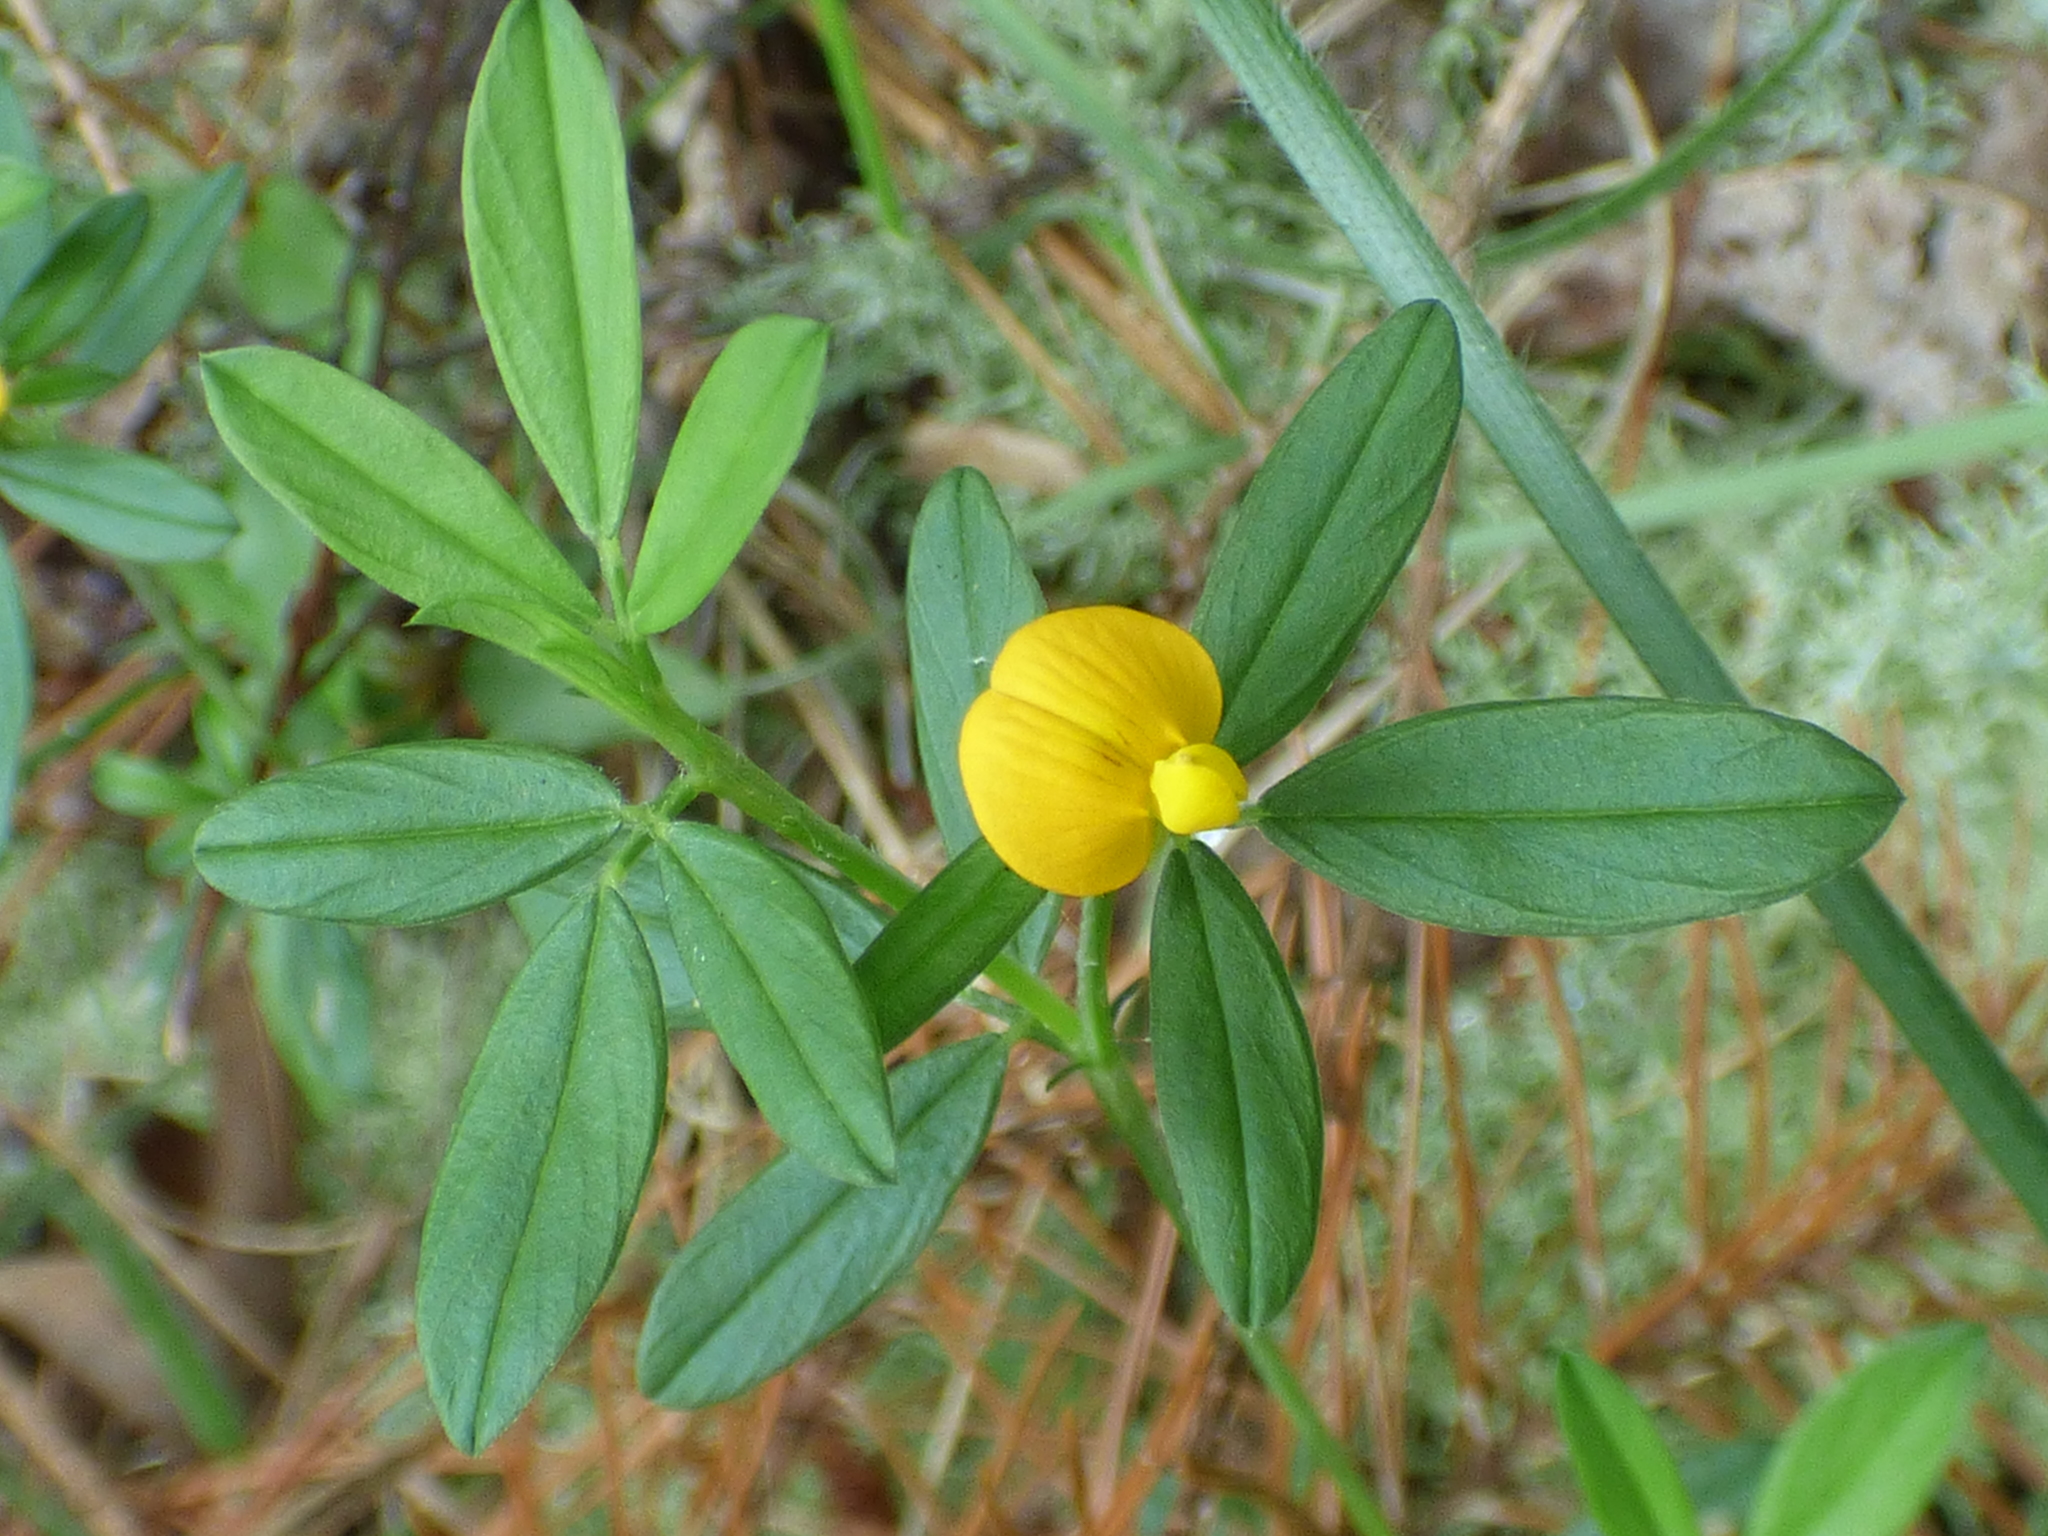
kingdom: Plantae
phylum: Tracheophyta
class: Magnoliopsida
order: Fabales
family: Fabaceae
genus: Stylosanthes
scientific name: Stylosanthes biflora
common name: Two-flower pencil-flower
